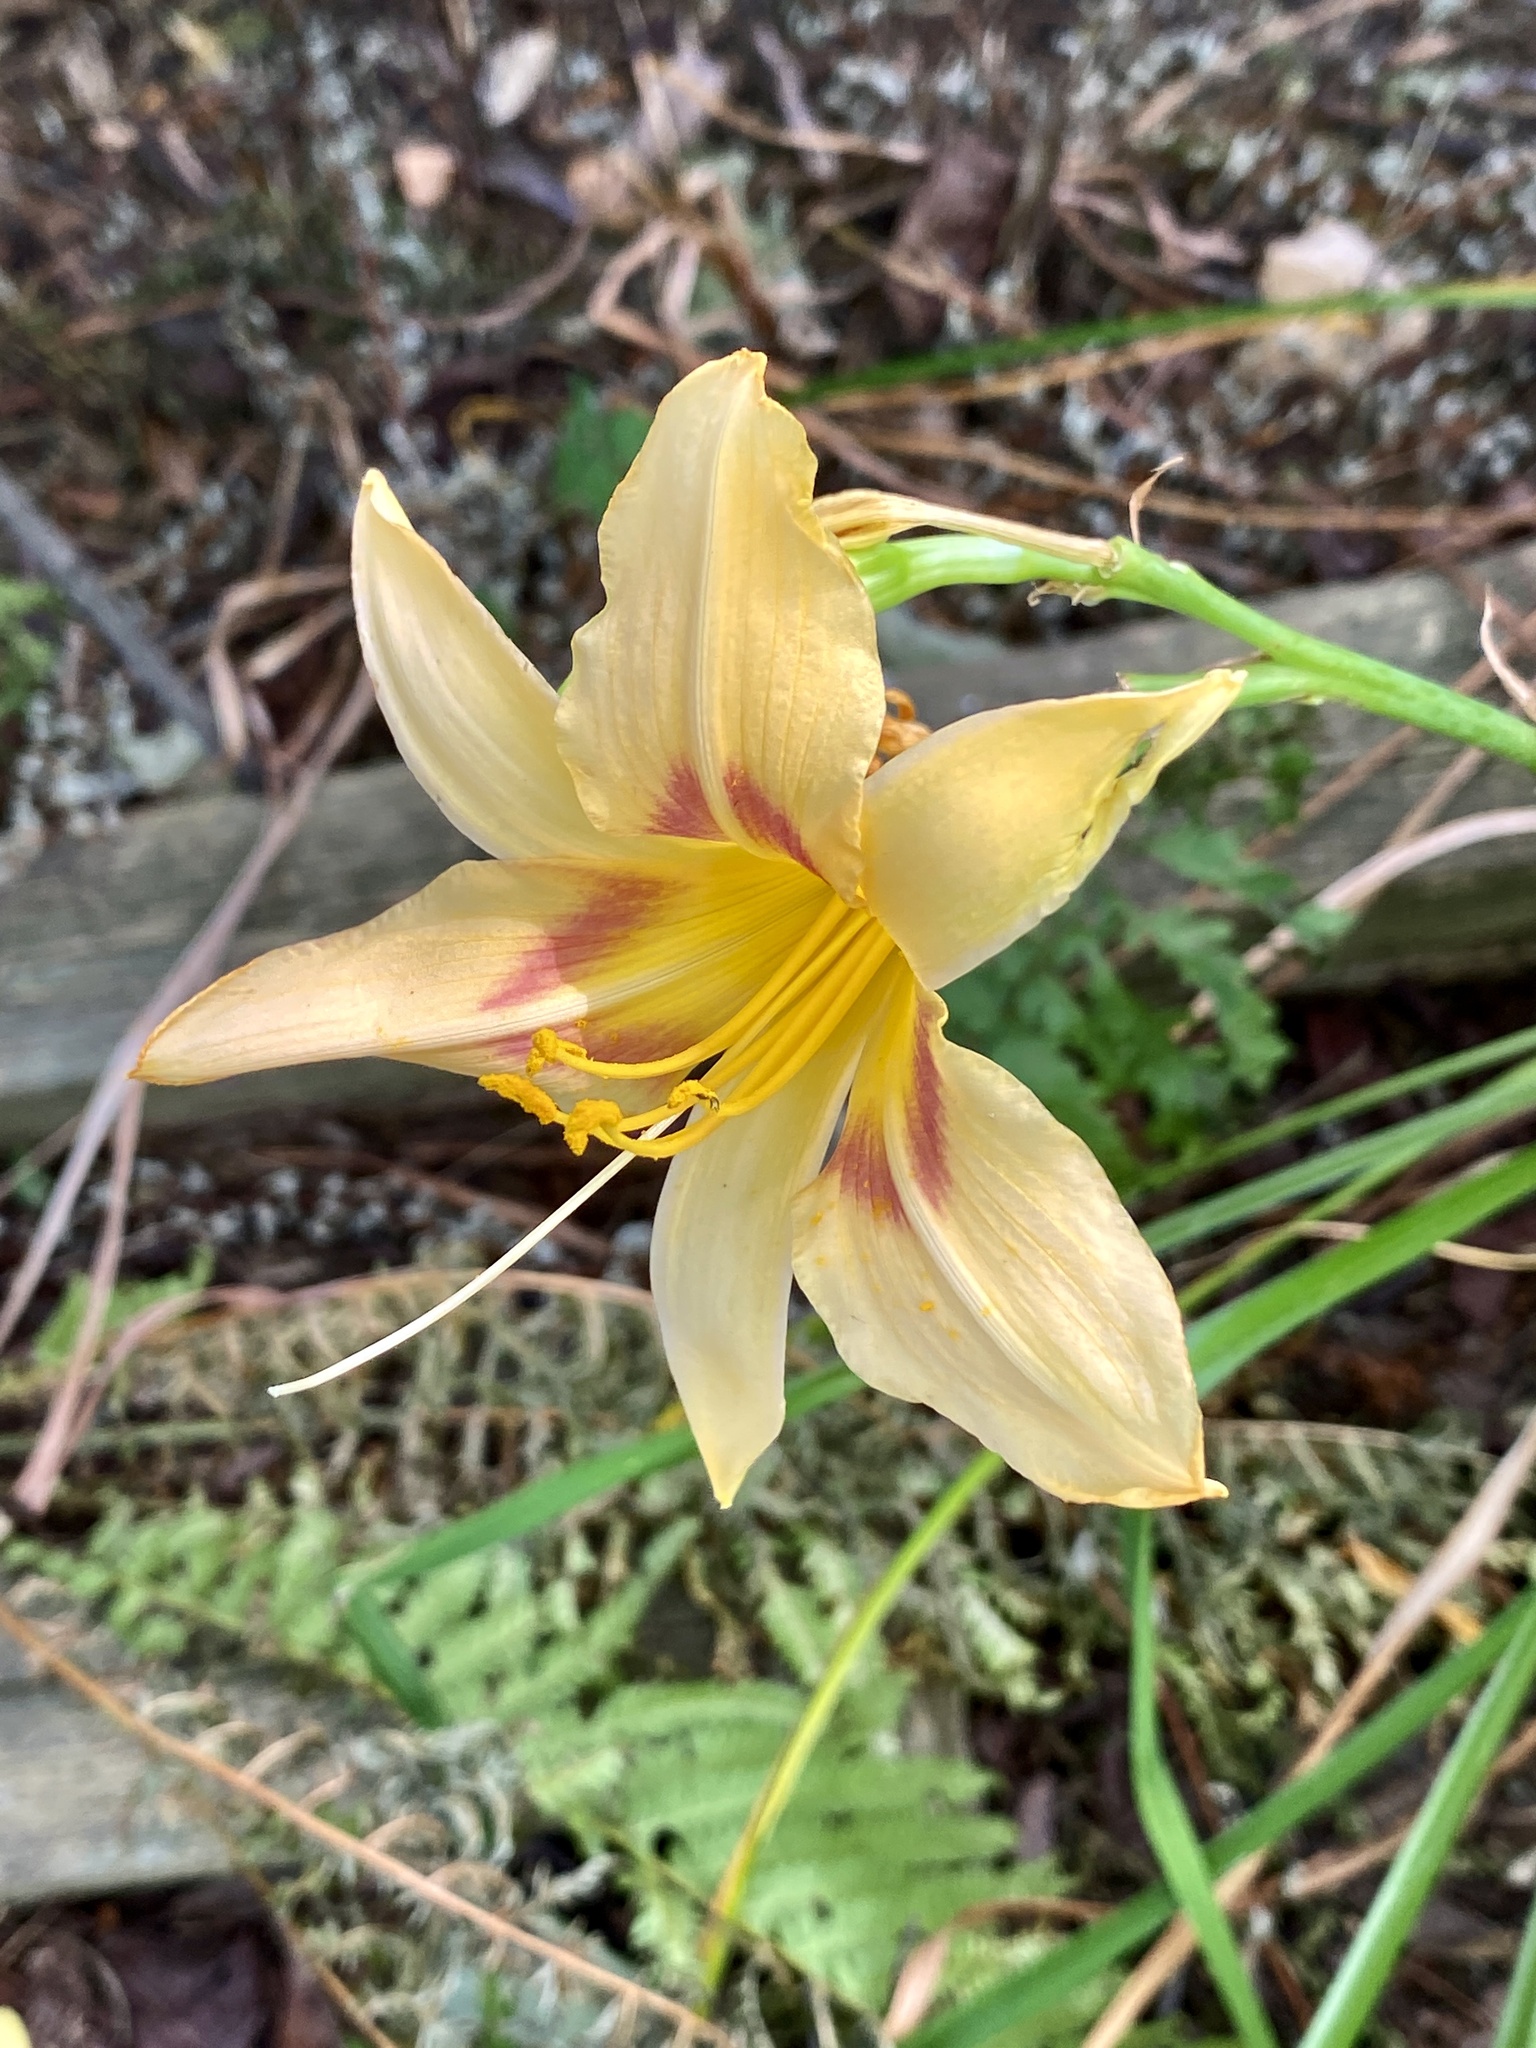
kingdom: Plantae
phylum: Tracheophyta
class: Liliopsida
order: Asparagales
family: Asphodelaceae
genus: Hemerocallis
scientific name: Hemerocallis fulva
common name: Orange day-lily
